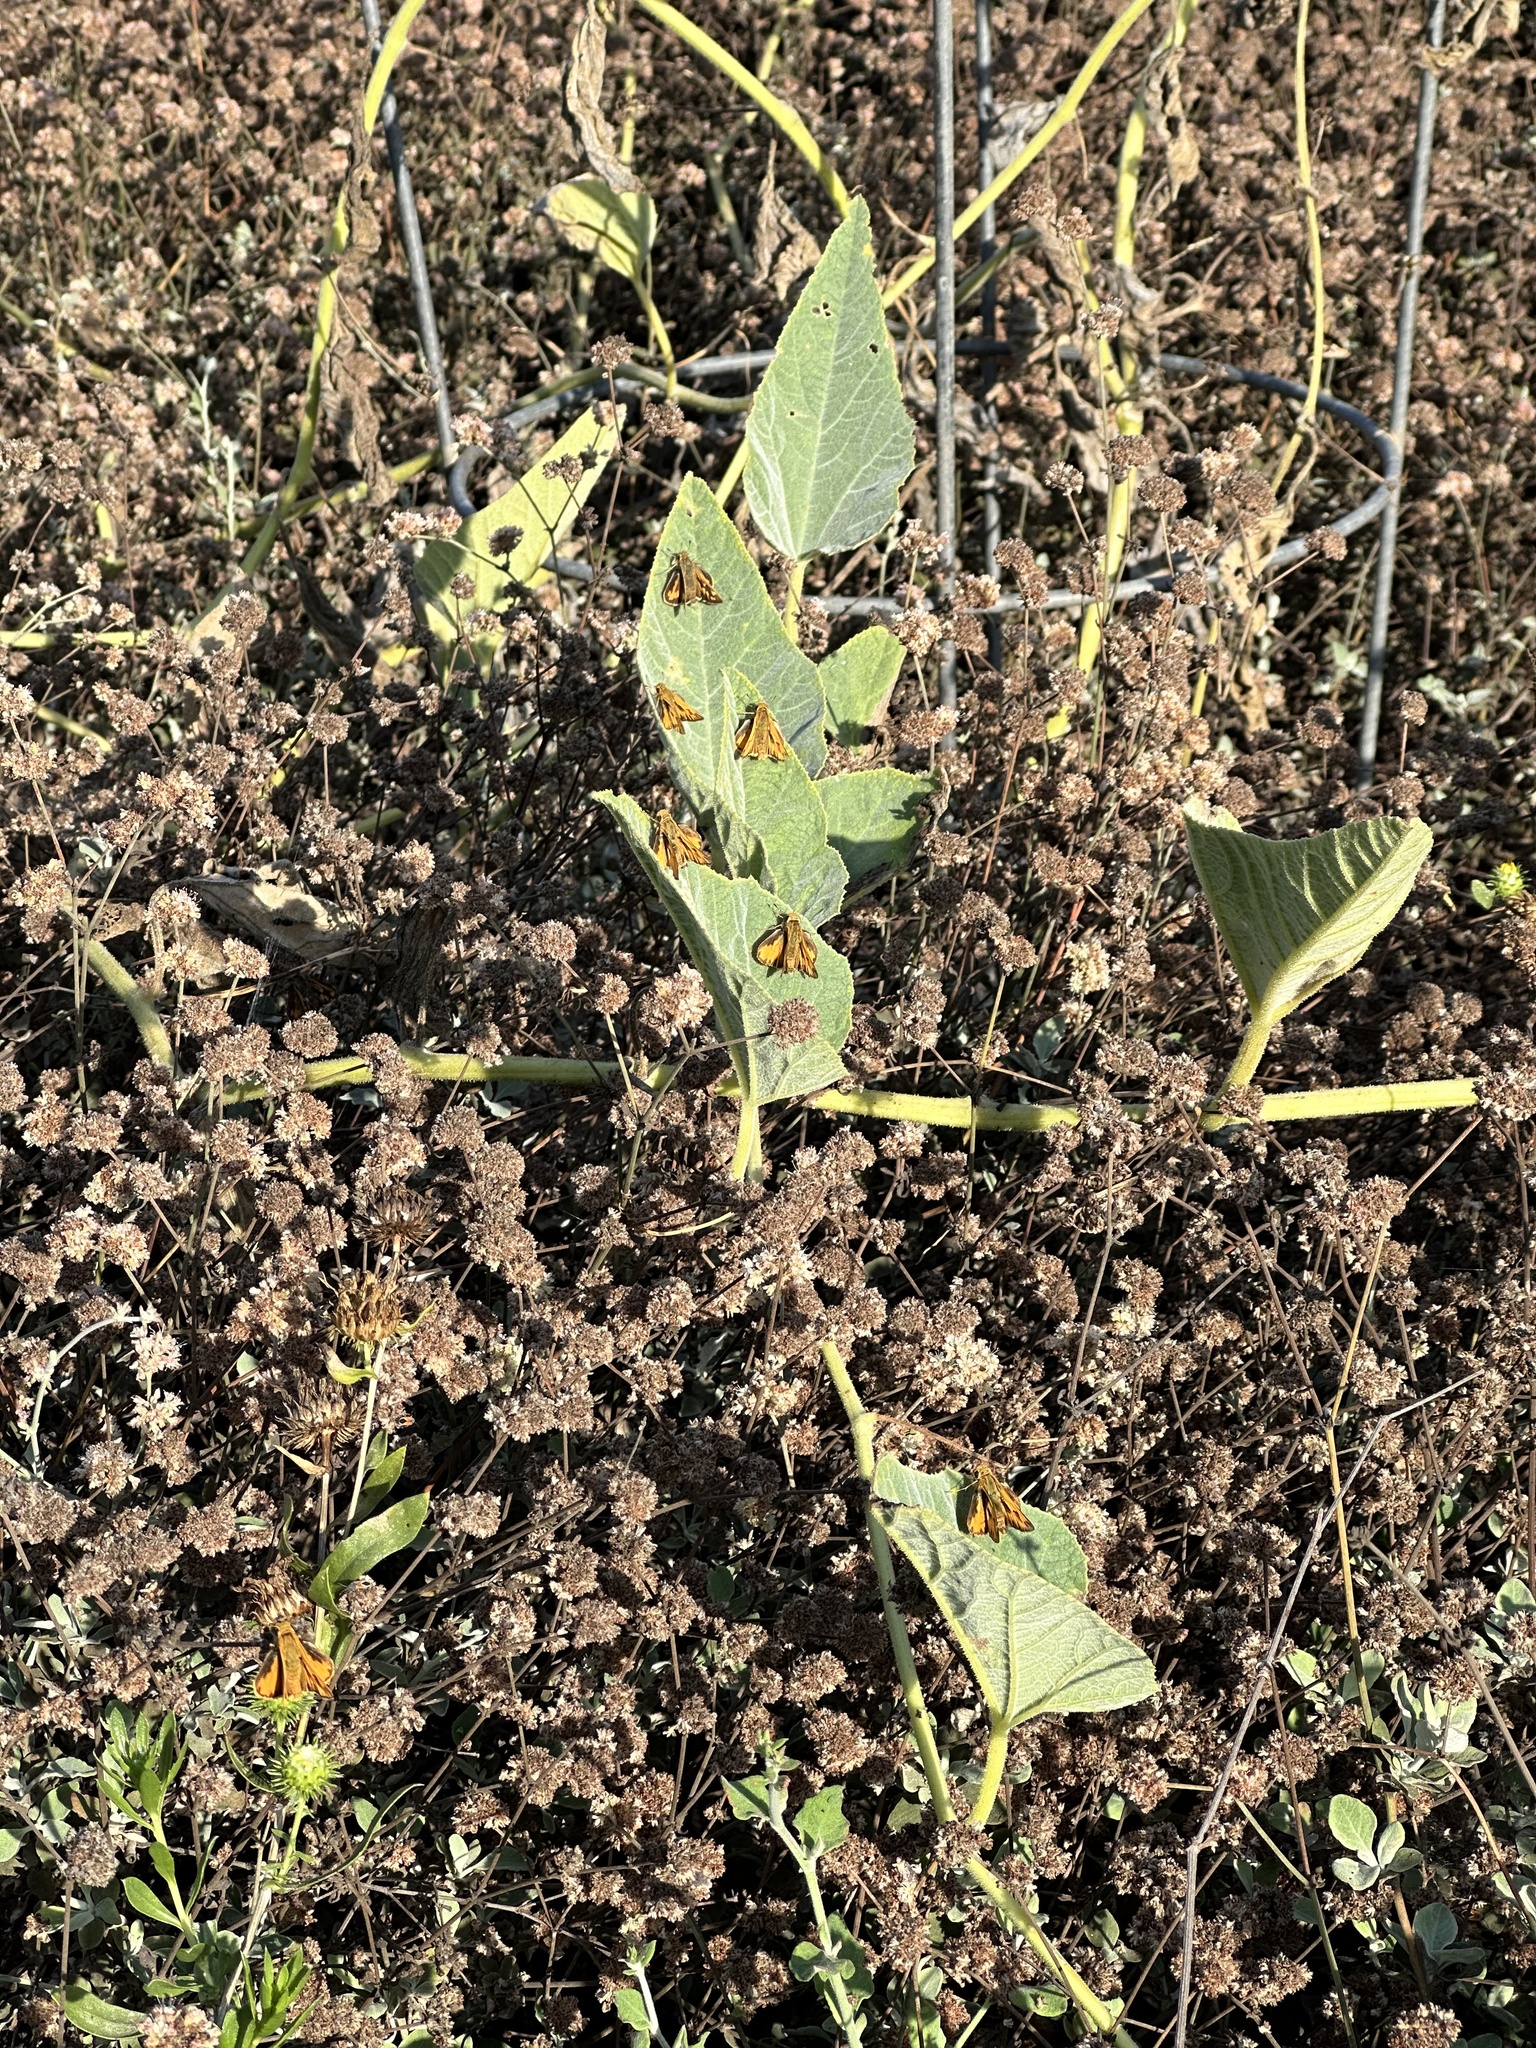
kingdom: Animalia
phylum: Arthropoda
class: Insecta
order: Lepidoptera
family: Hesperiidae
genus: Hylephila
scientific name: Hylephila phyleus
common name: Fiery skipper
